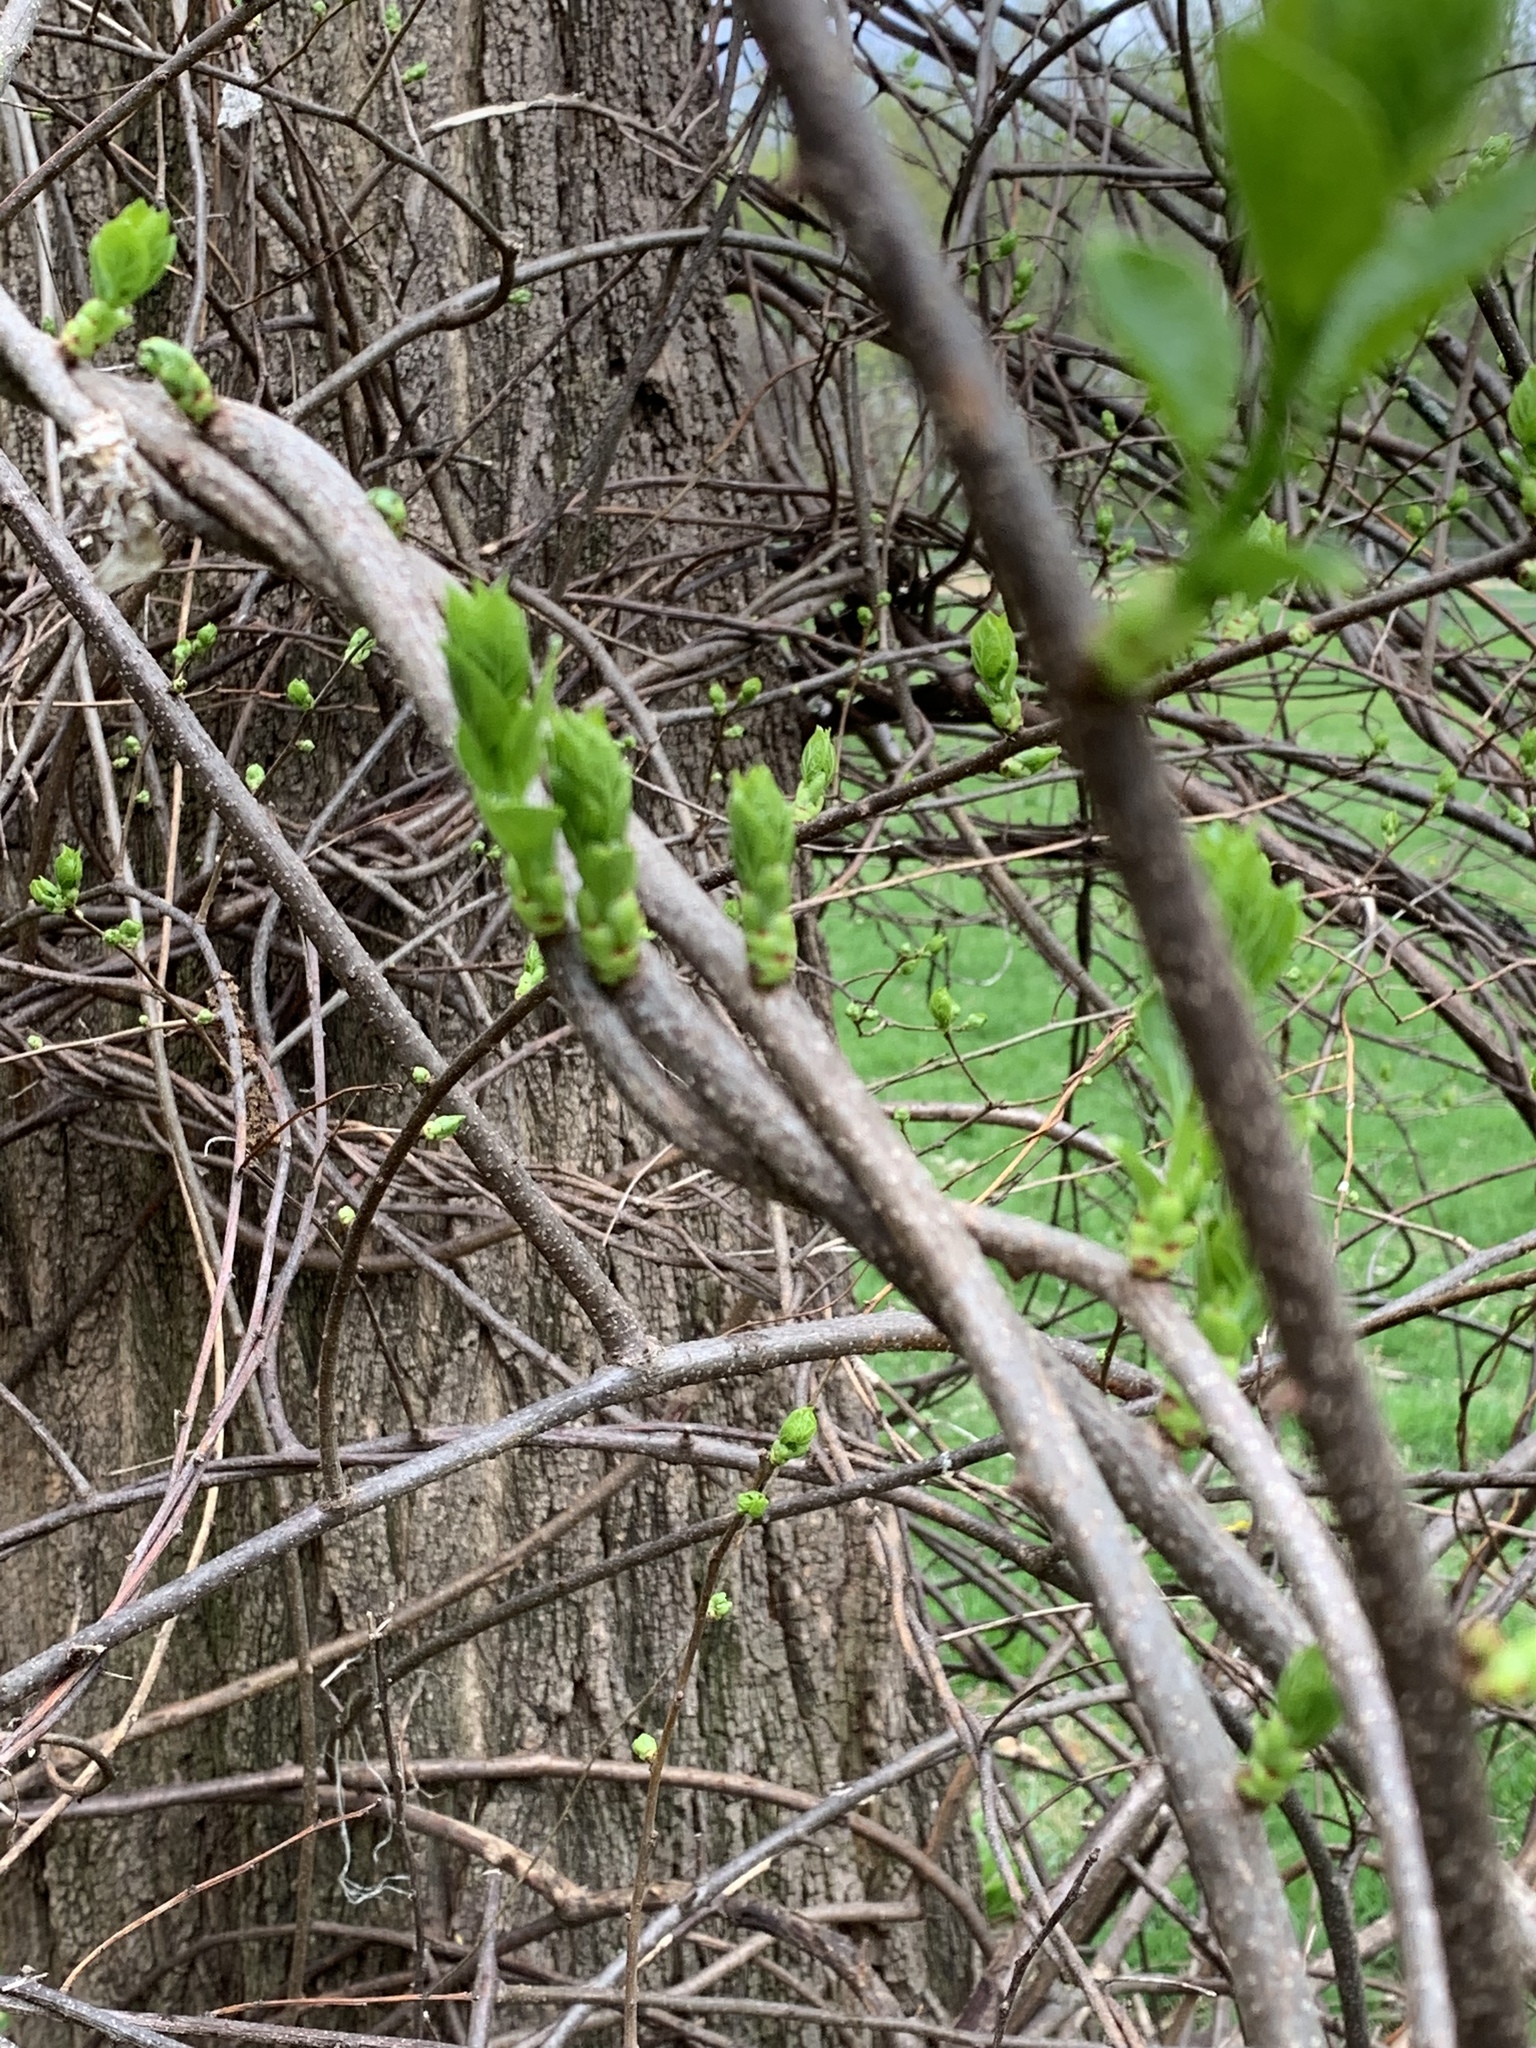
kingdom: Plantae
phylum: Tracheophyta
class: Magnoliopsida
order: Celastrales
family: Celastraceae
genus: Celastrus
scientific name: Celastrus orbiculatus
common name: Oriental bittersweet
